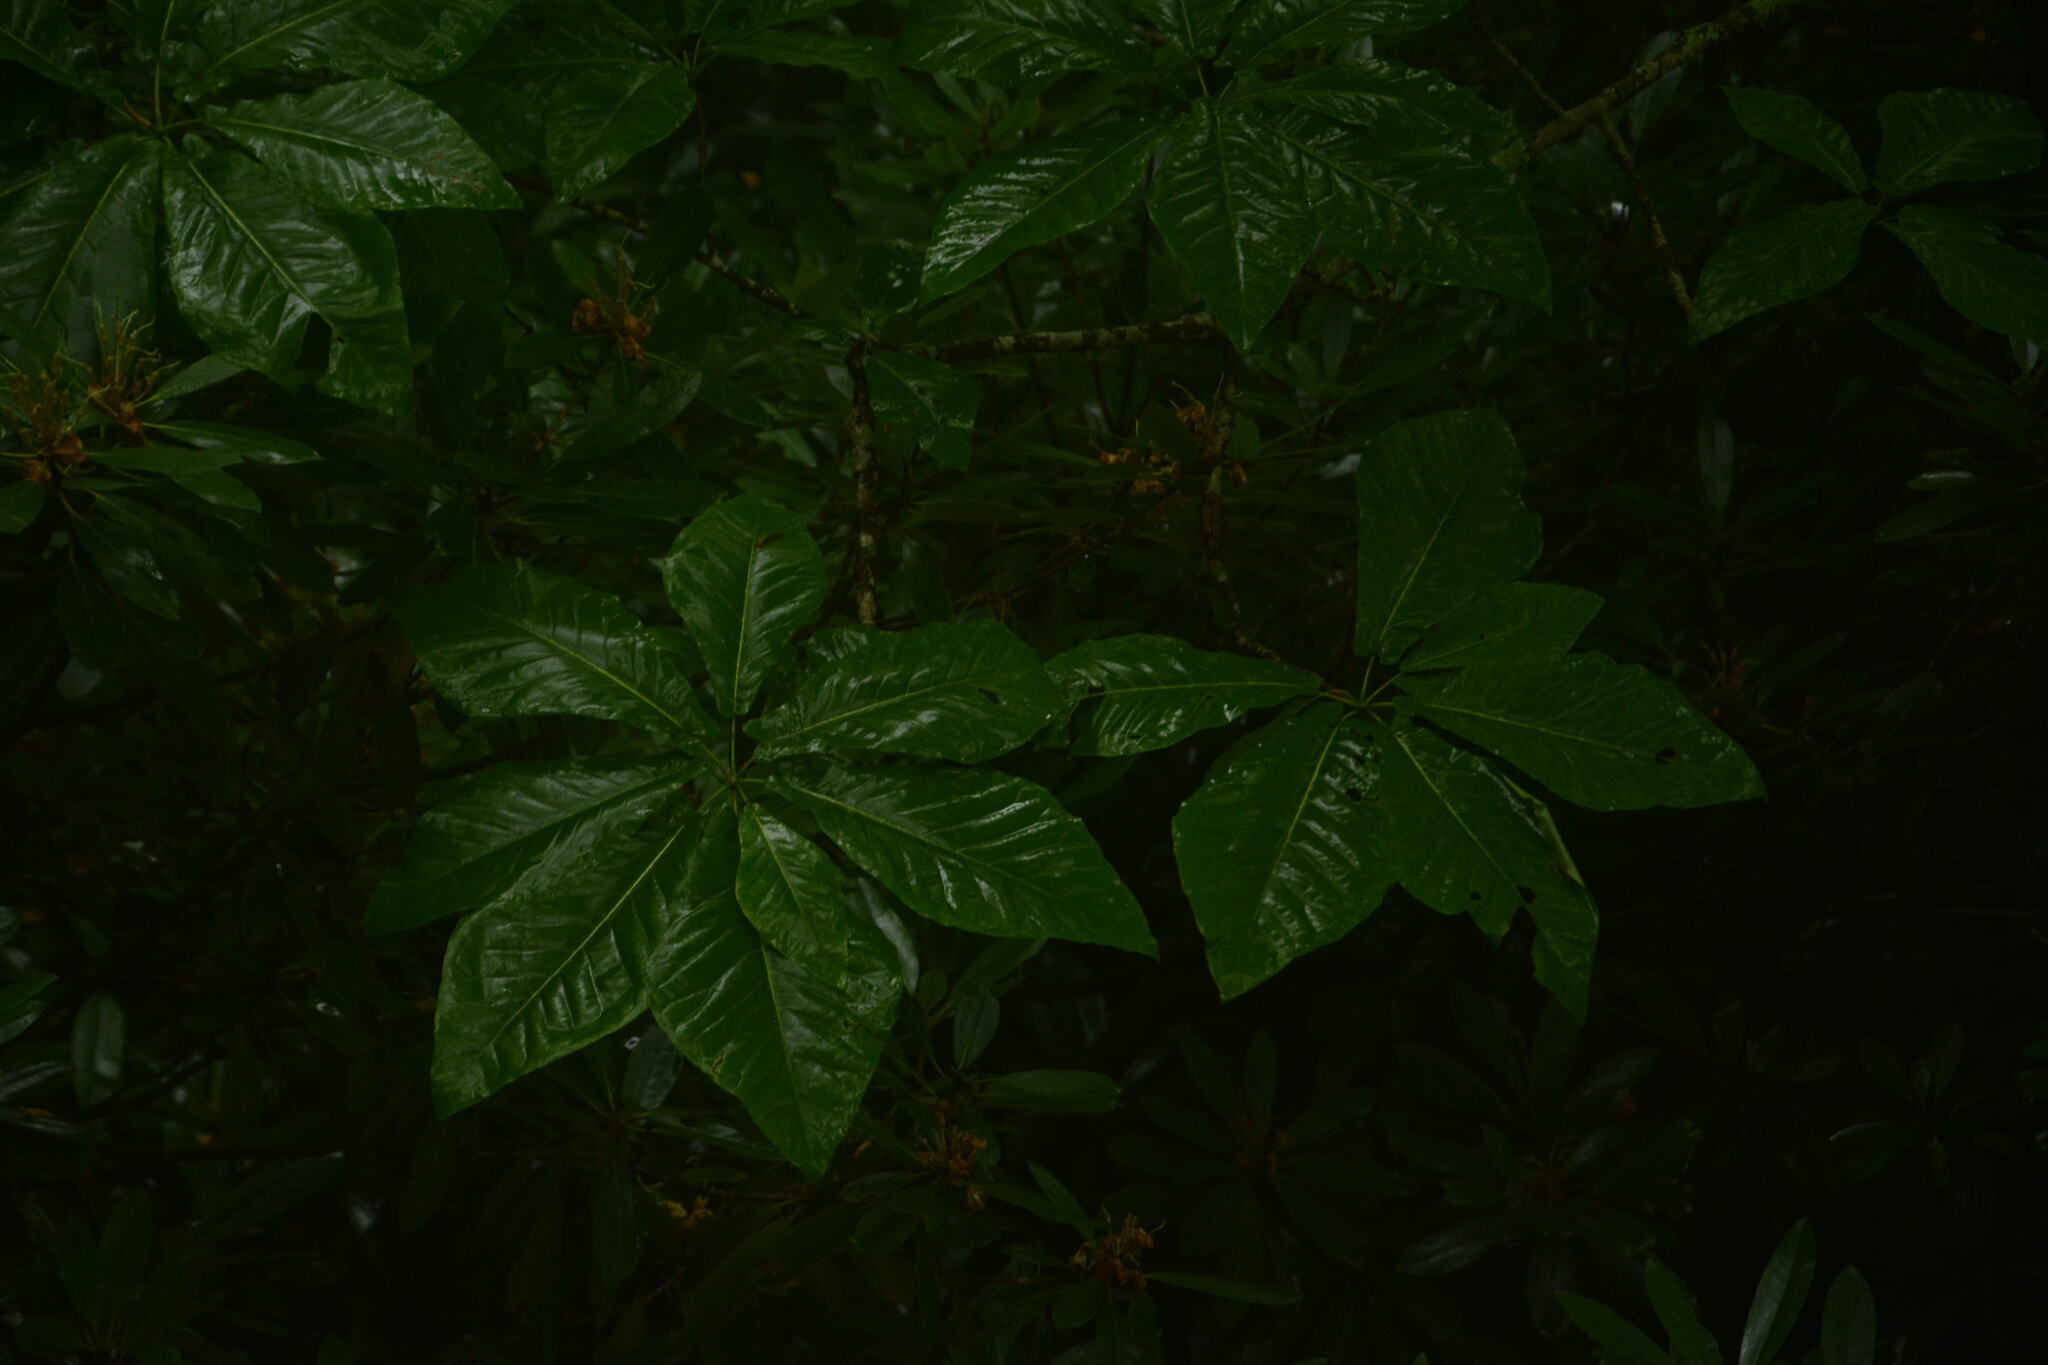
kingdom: Plantae
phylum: Tracheophyta
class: Magnoliopsida
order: Magnoliales
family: Magnoliaceae
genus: Magnolia
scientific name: Magnolia fraseri
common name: Fraser's magnolia
